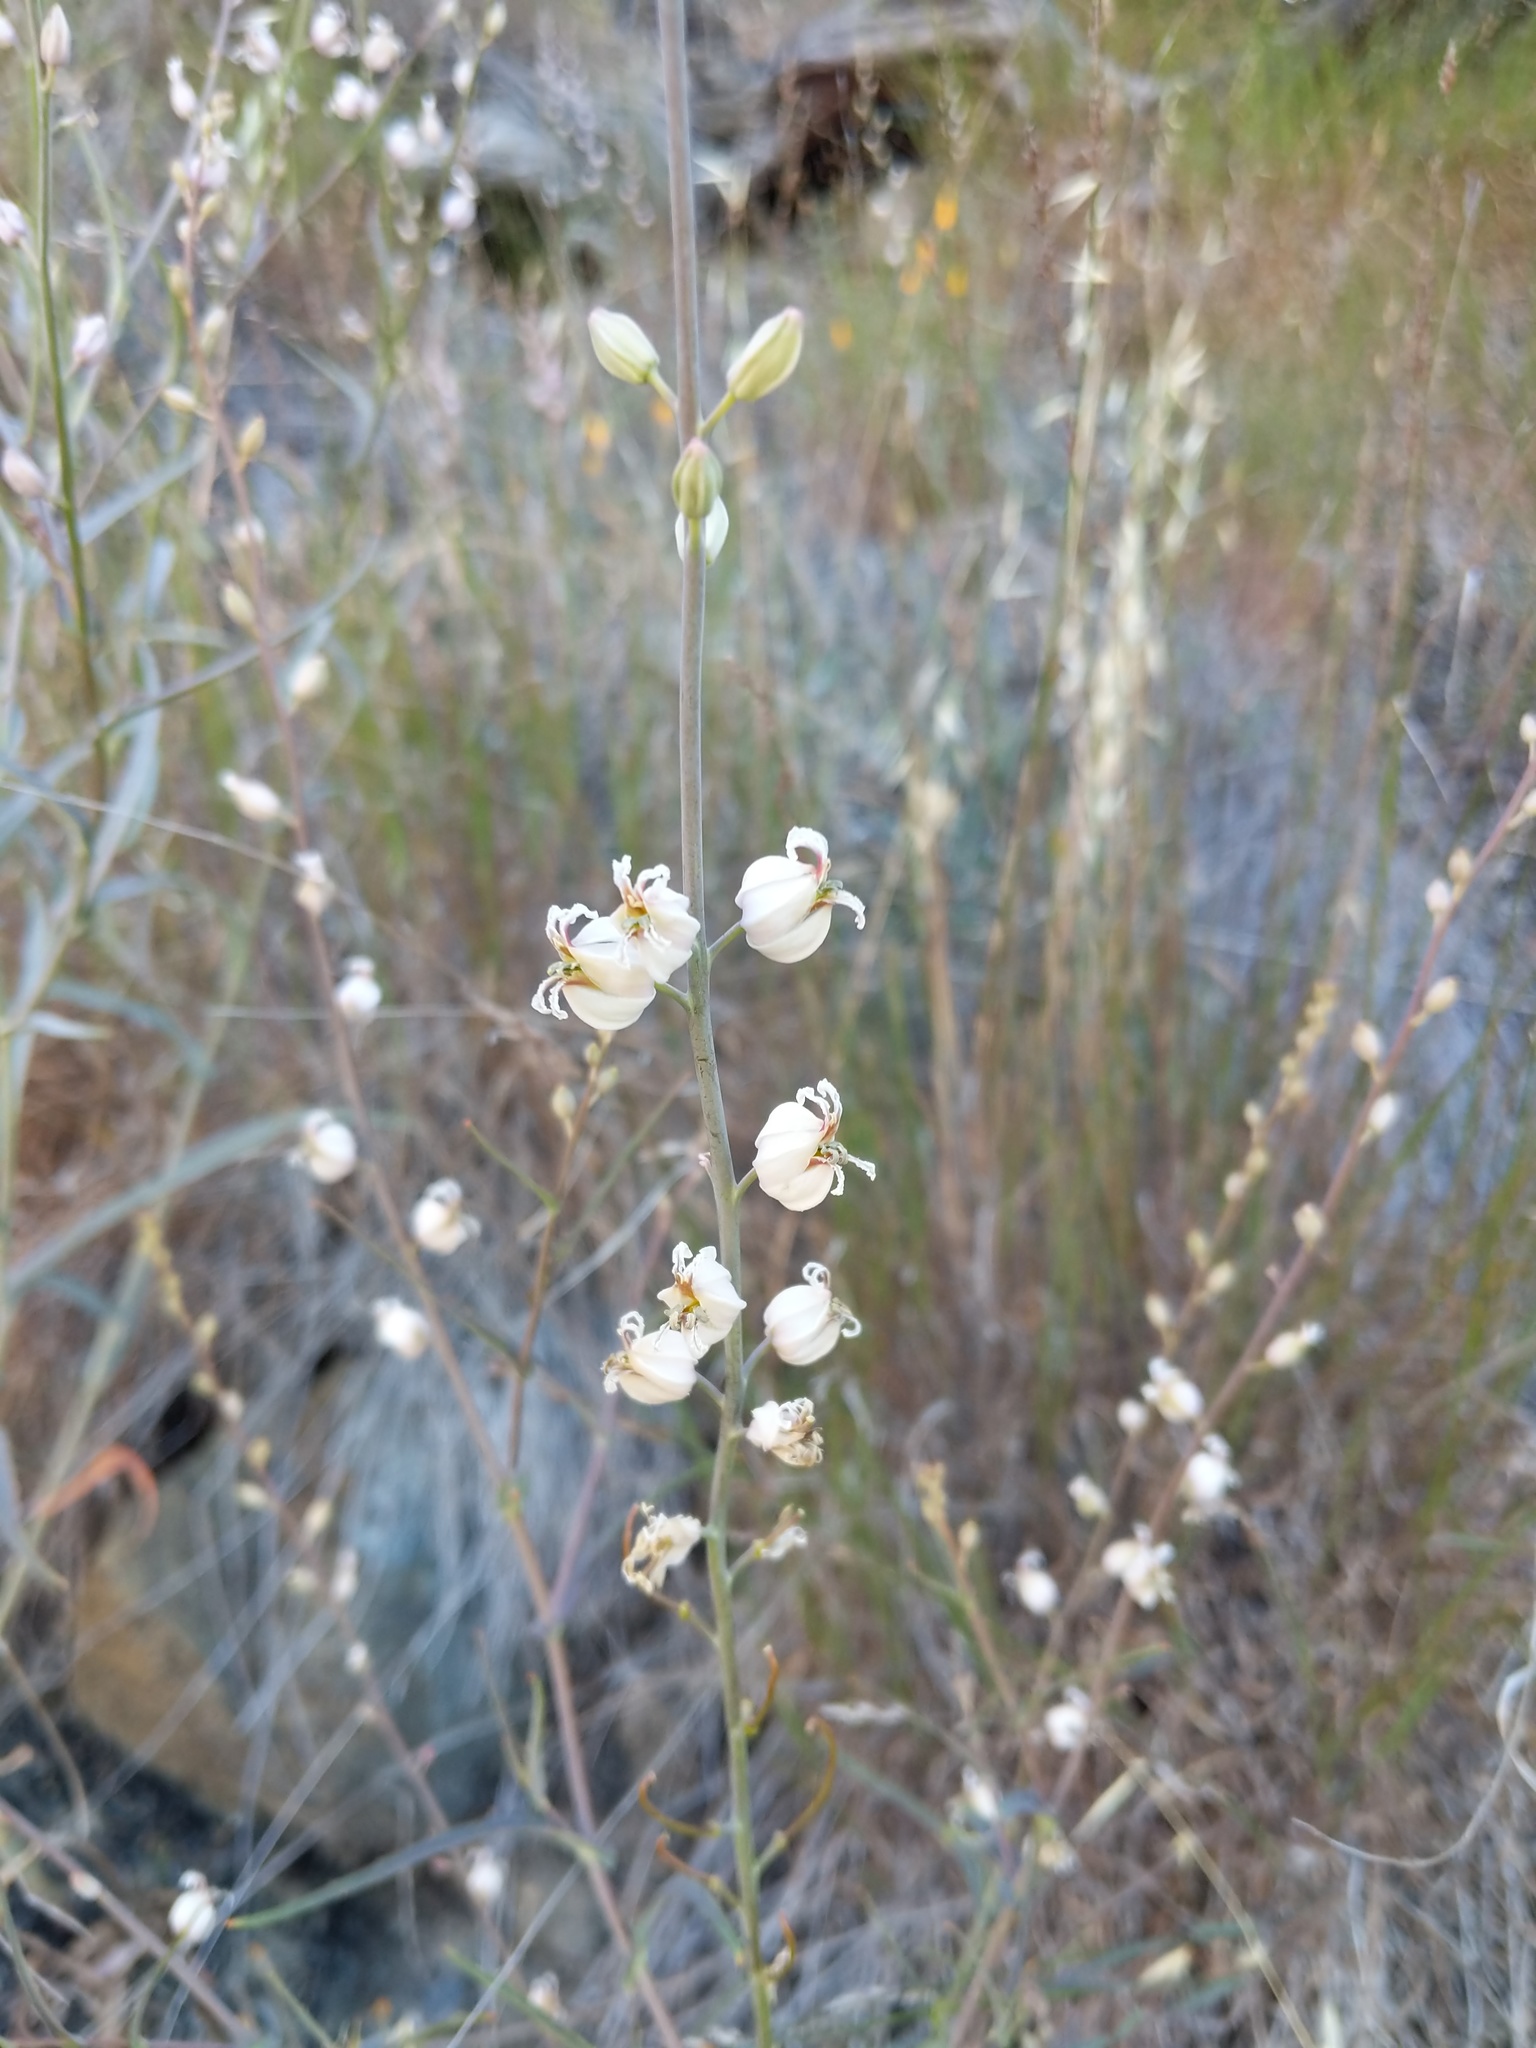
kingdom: Plantae
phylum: Tracheophyta
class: Magnoliopsida
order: Brassicales
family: Brassicaceae
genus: Streptanthus
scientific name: Streptanthus glandulosus
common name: Jewel-flower
